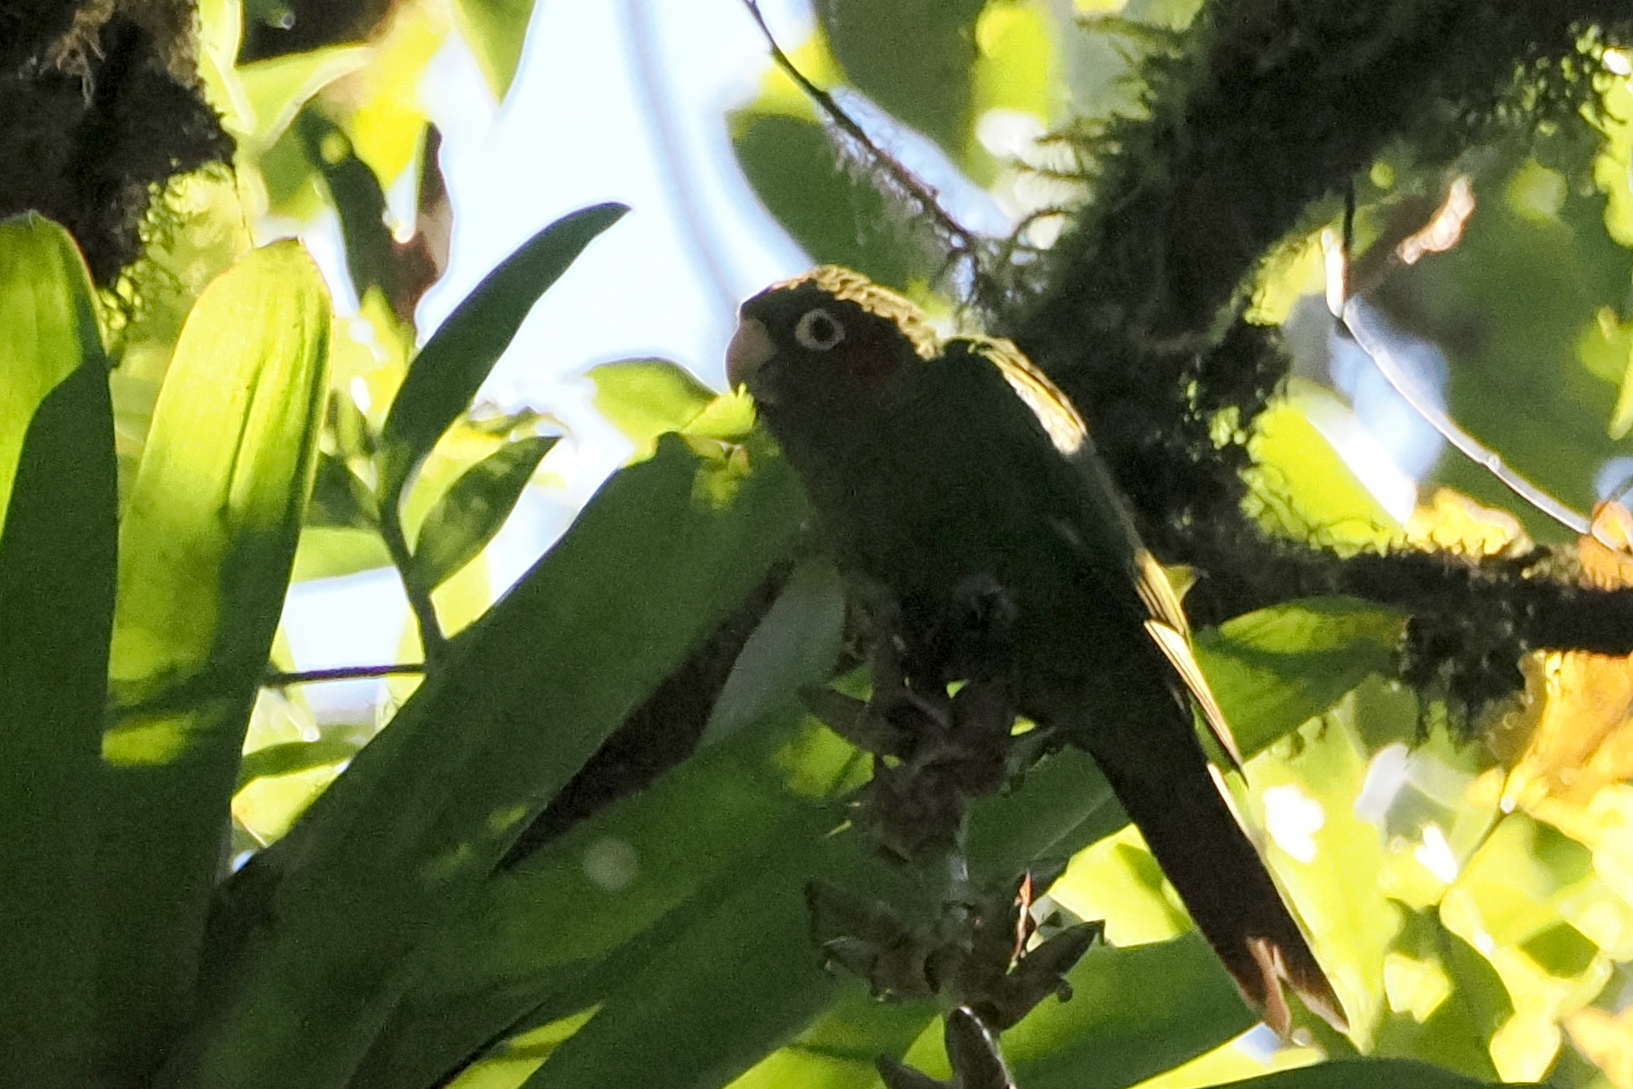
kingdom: Animalia
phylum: Chordata
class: Aves
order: Psittaciformes
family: Psittacidae
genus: Pyrrhura
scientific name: Pyrrhura hoffmanni
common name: Sulphur-winged parakeet
